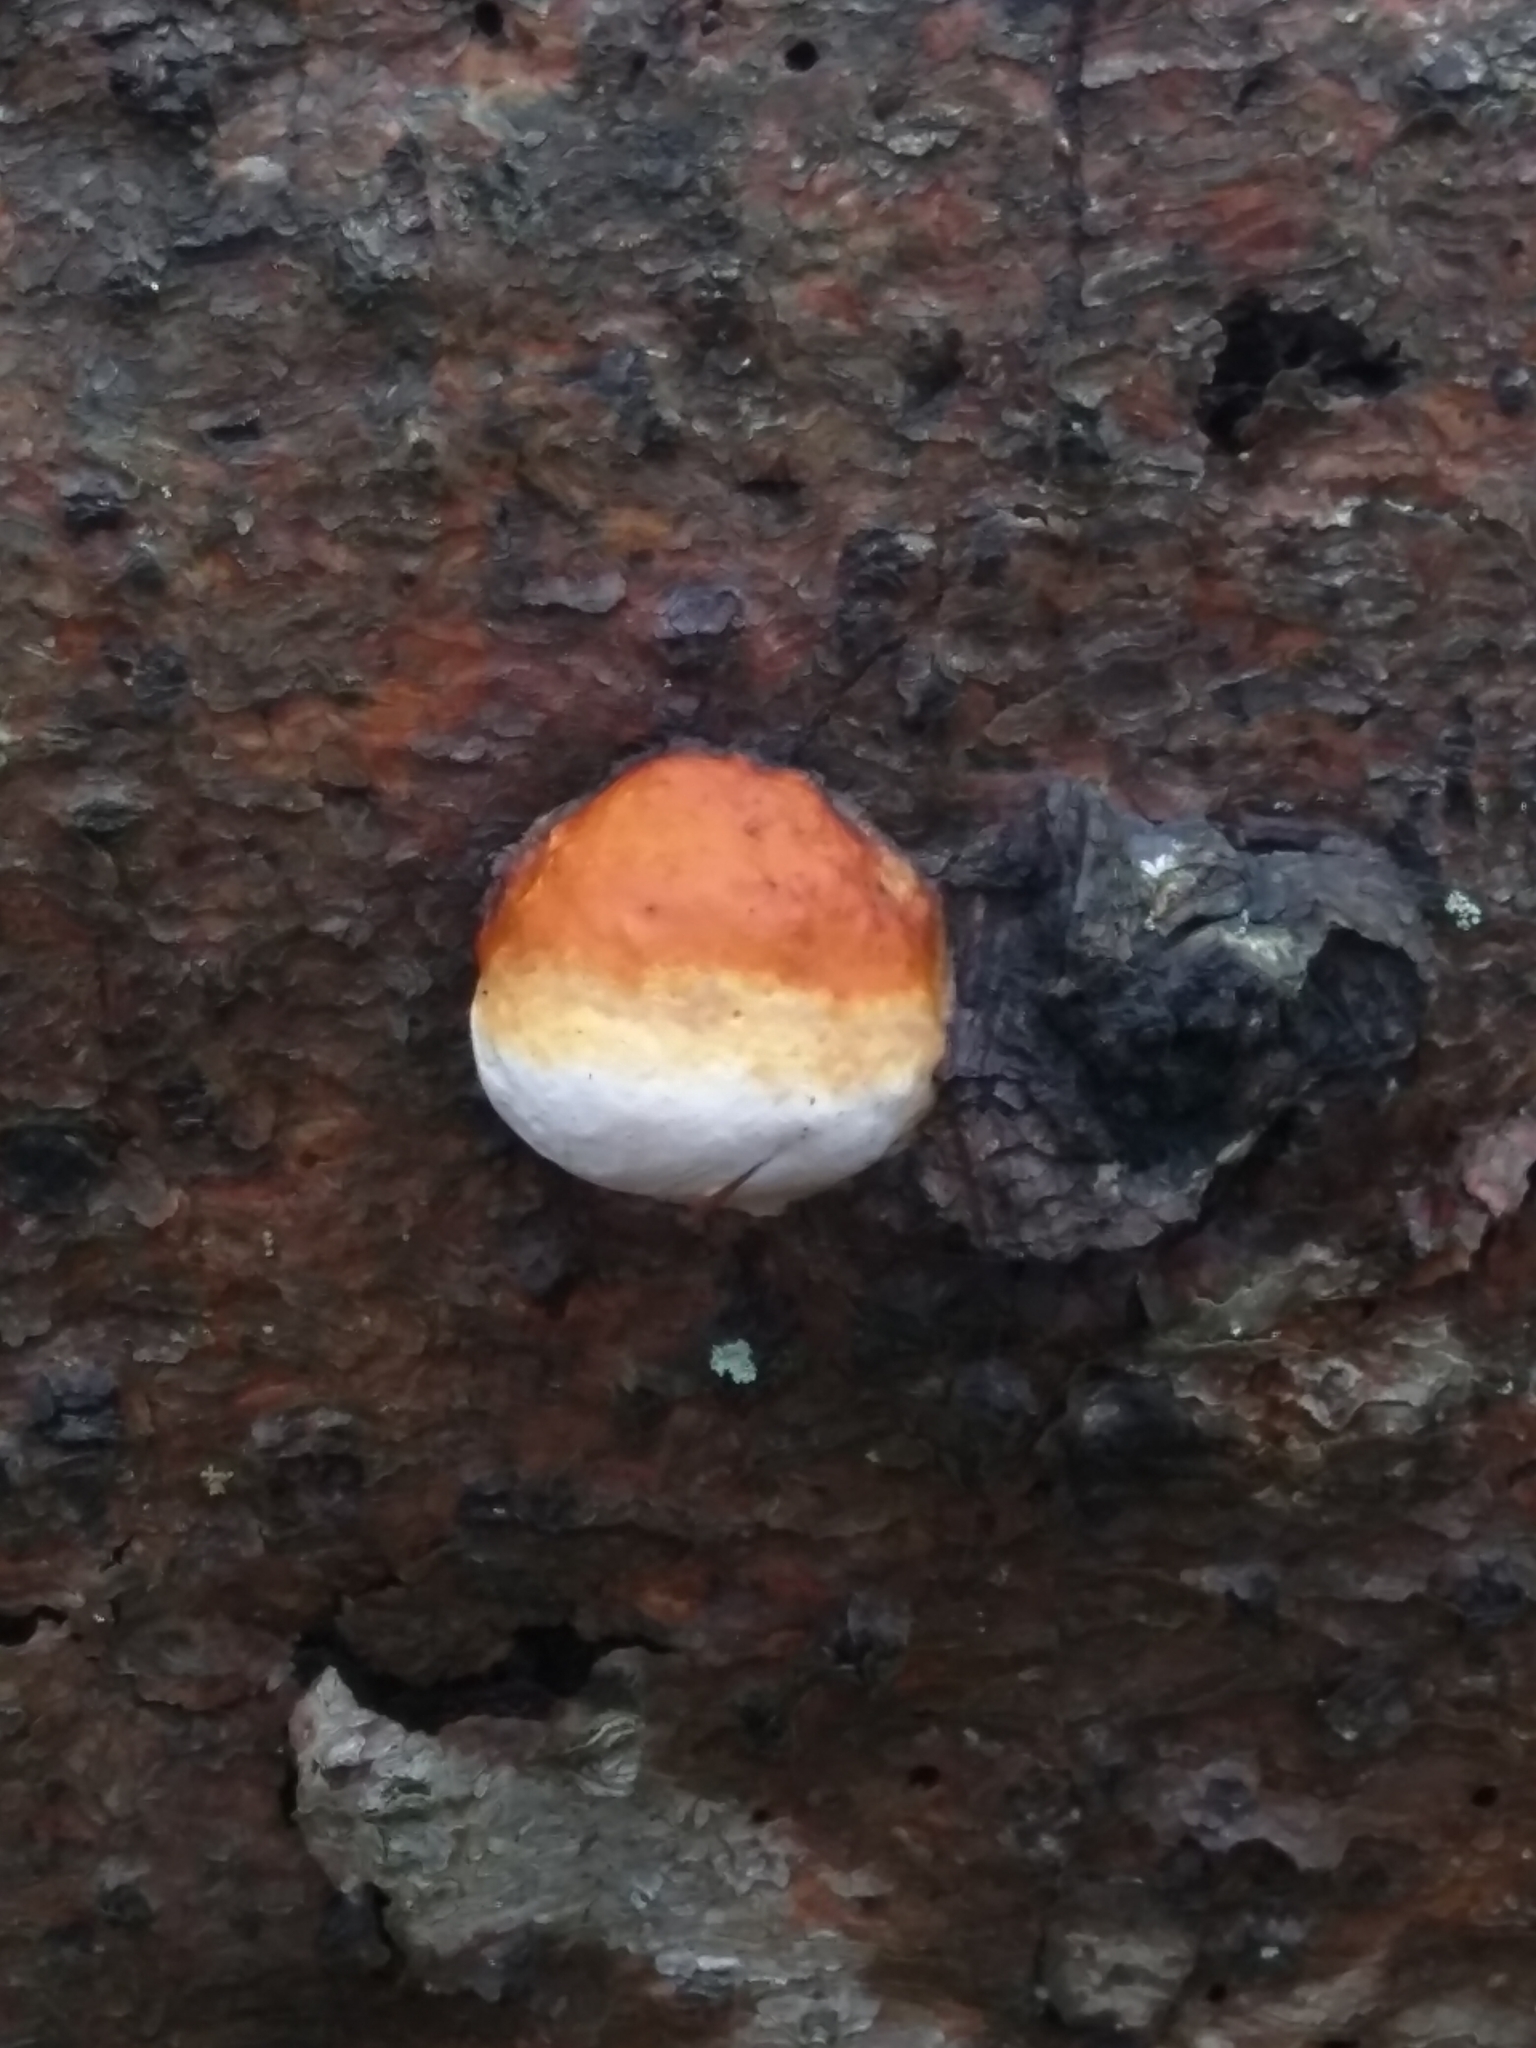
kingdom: Fungi
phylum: Basidiomycota
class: Agaricomycetes
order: Polyporales
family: Fomitopsidaceae
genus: Fomitopsis
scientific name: Fomitopsis pinicola
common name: Red-belted bracket
